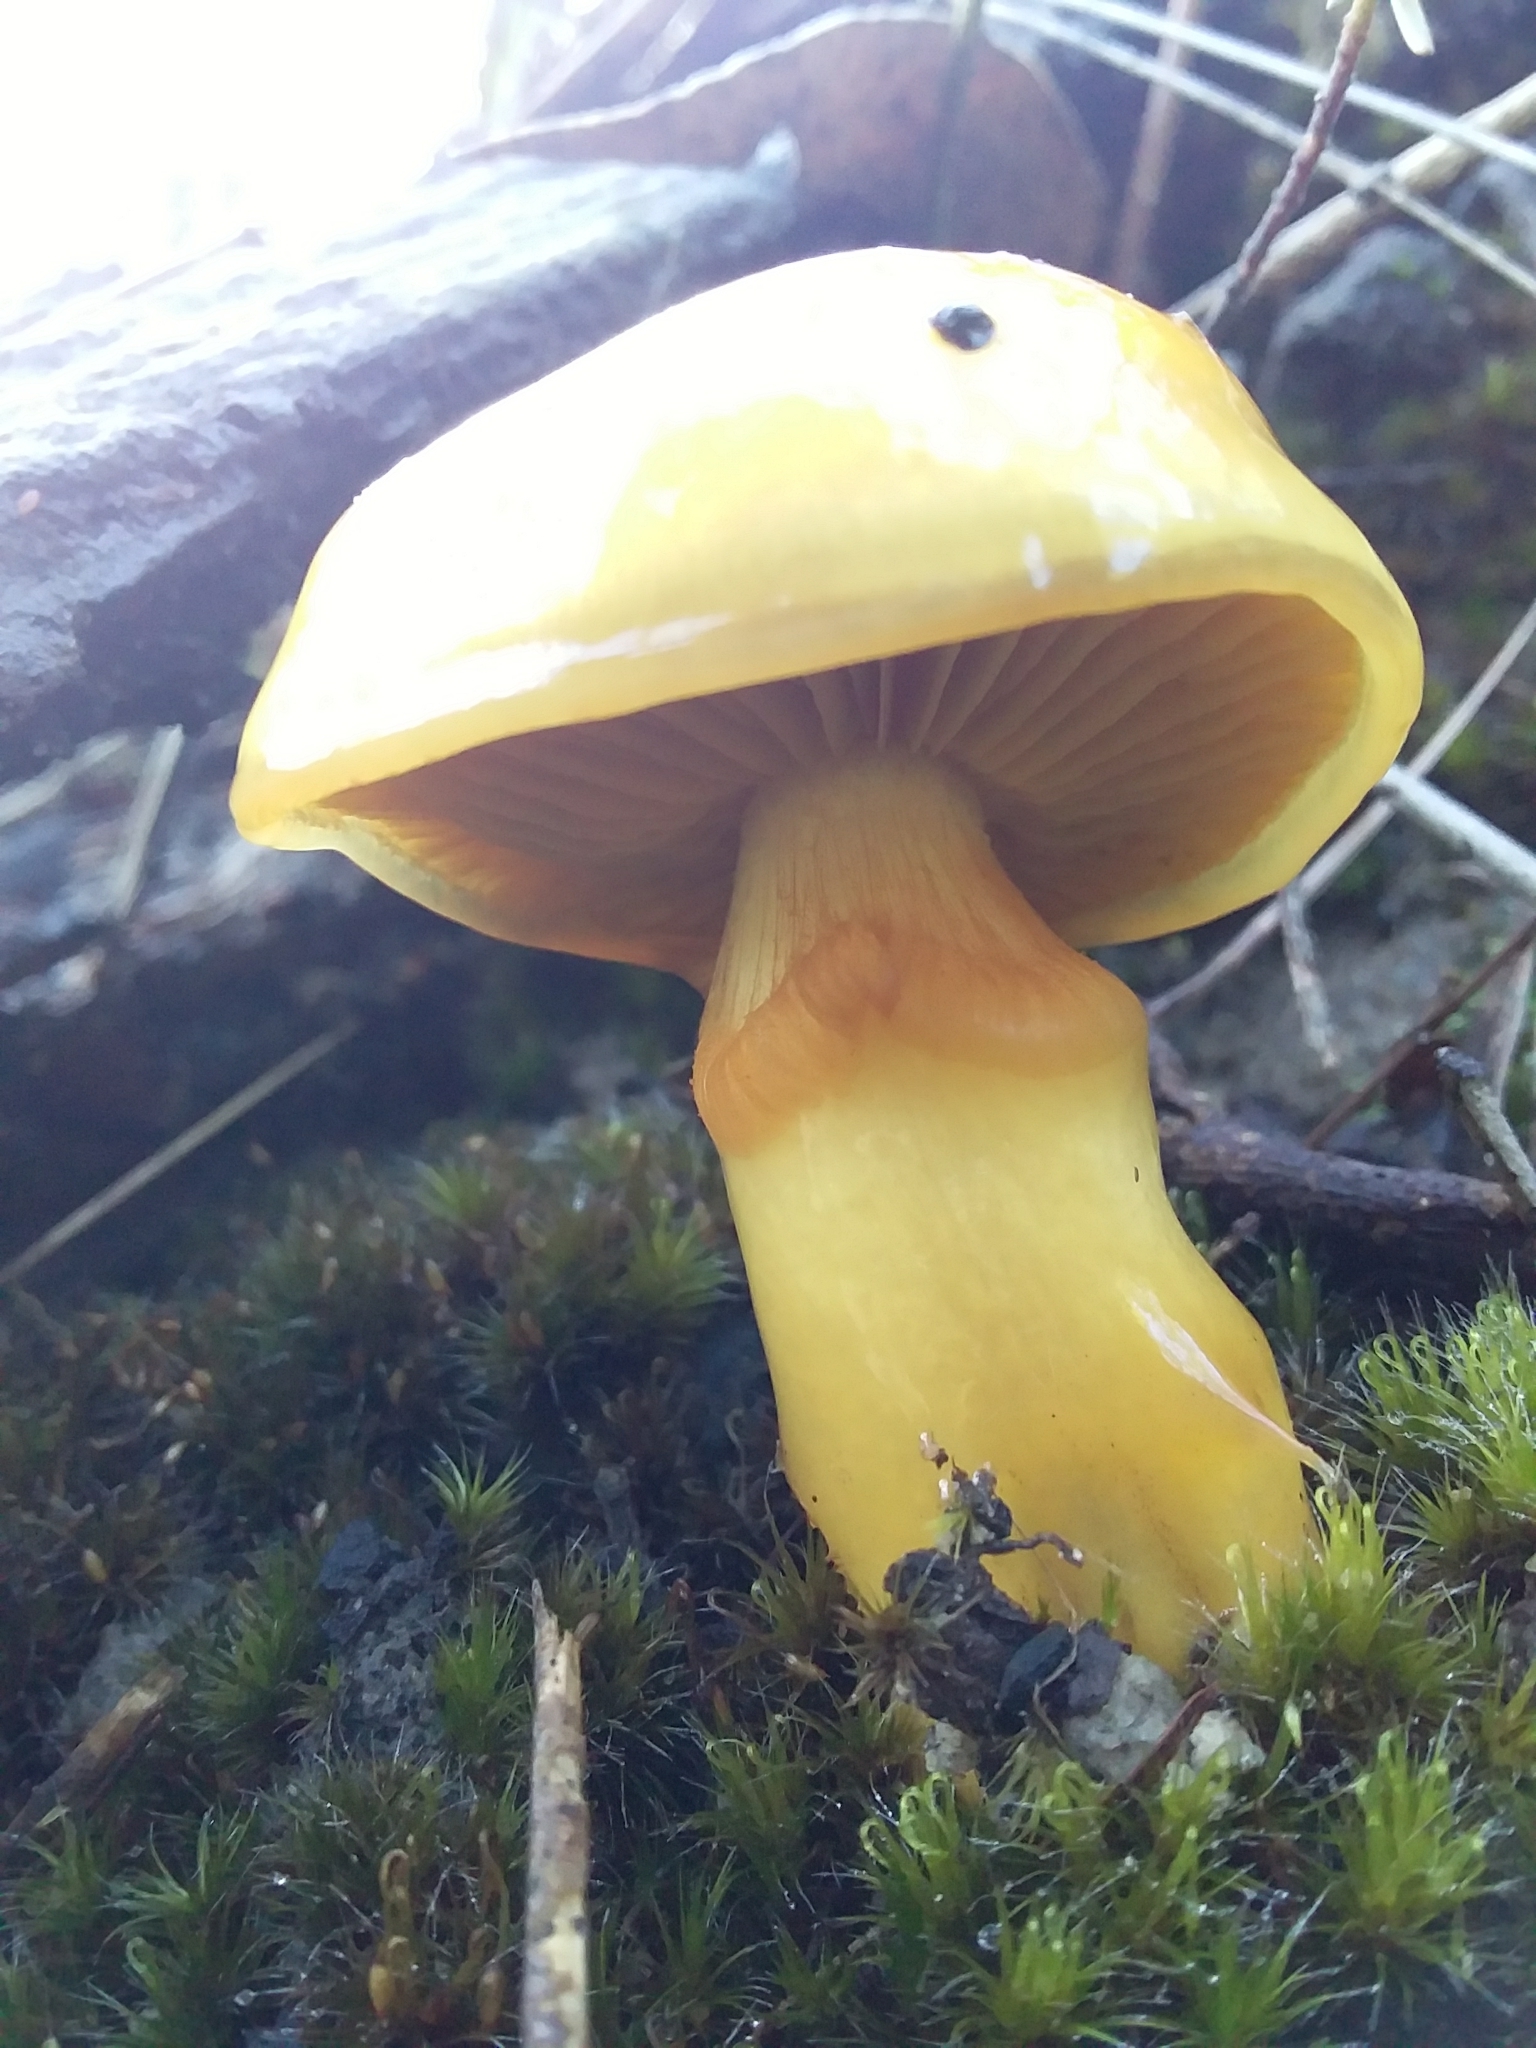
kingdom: Fungi
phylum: Basidiomycota
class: Agaricomycetes
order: Agaricales
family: Cortinariaceae
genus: Cortinarius
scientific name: Cortinarius sinapicolor
